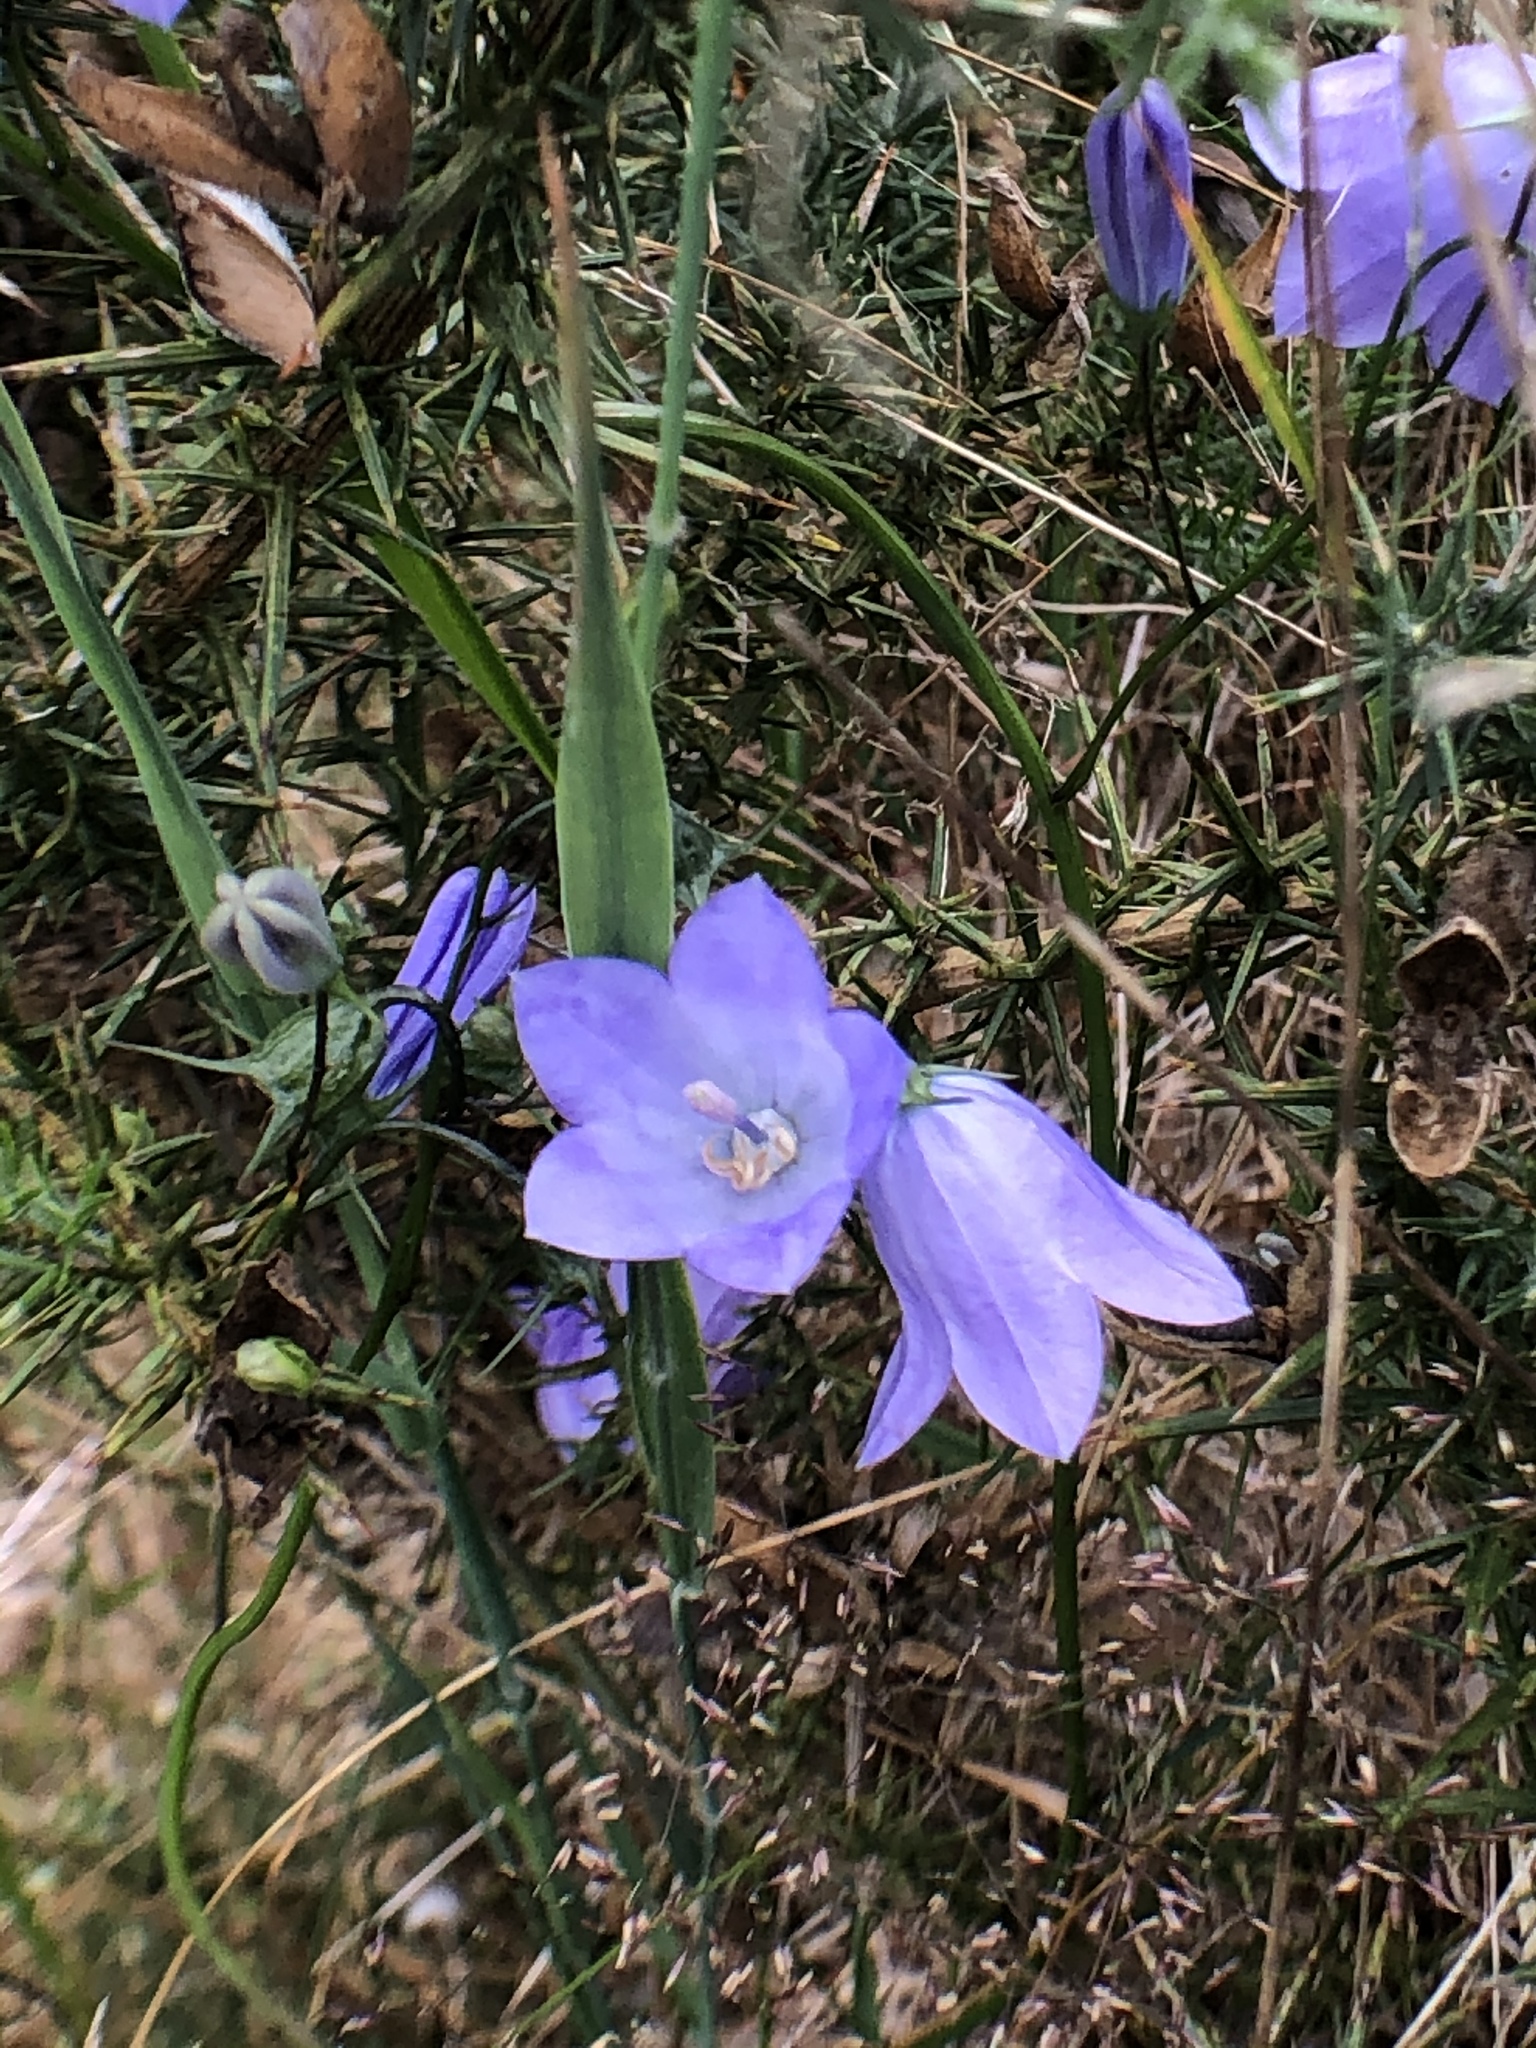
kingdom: Plantae
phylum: Tracheophyta
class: Magnoliopsida
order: Asterales
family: Campanulaceae
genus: Campanula
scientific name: Campanula rotundifolia
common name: Harebell
